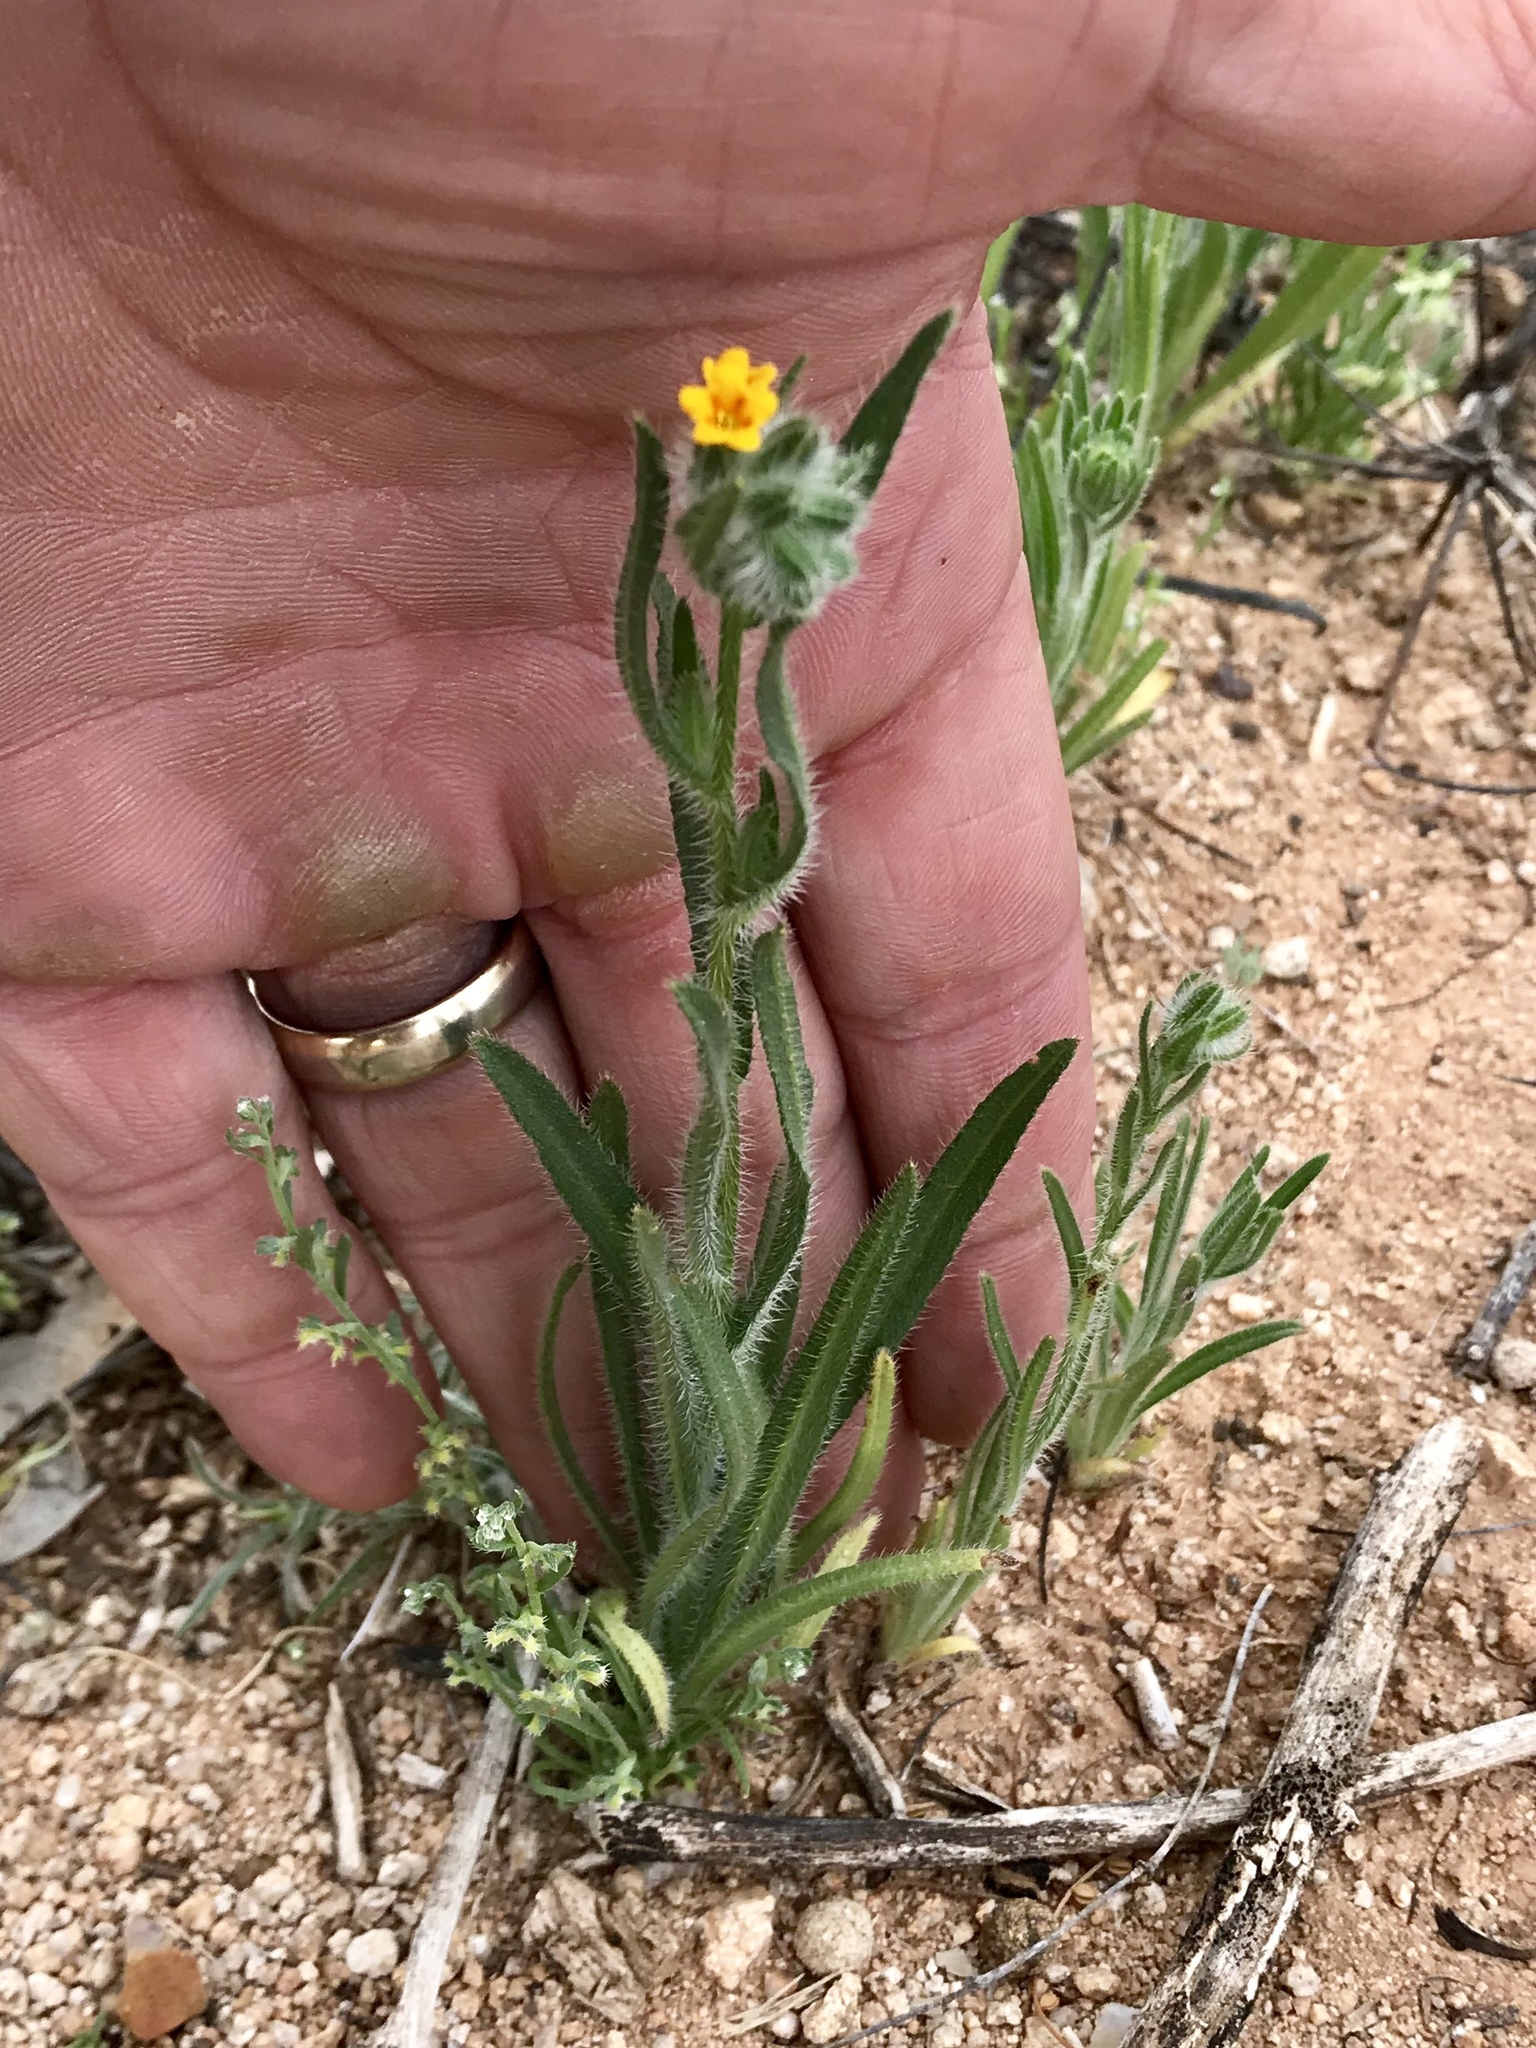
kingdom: Plantae
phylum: Tracheophyta
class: Magnoliopsida
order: Boraginales
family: Boraginaceae
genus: Amsinckia
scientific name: Amsinckia menziesii
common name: Menzies' fiddleneck
